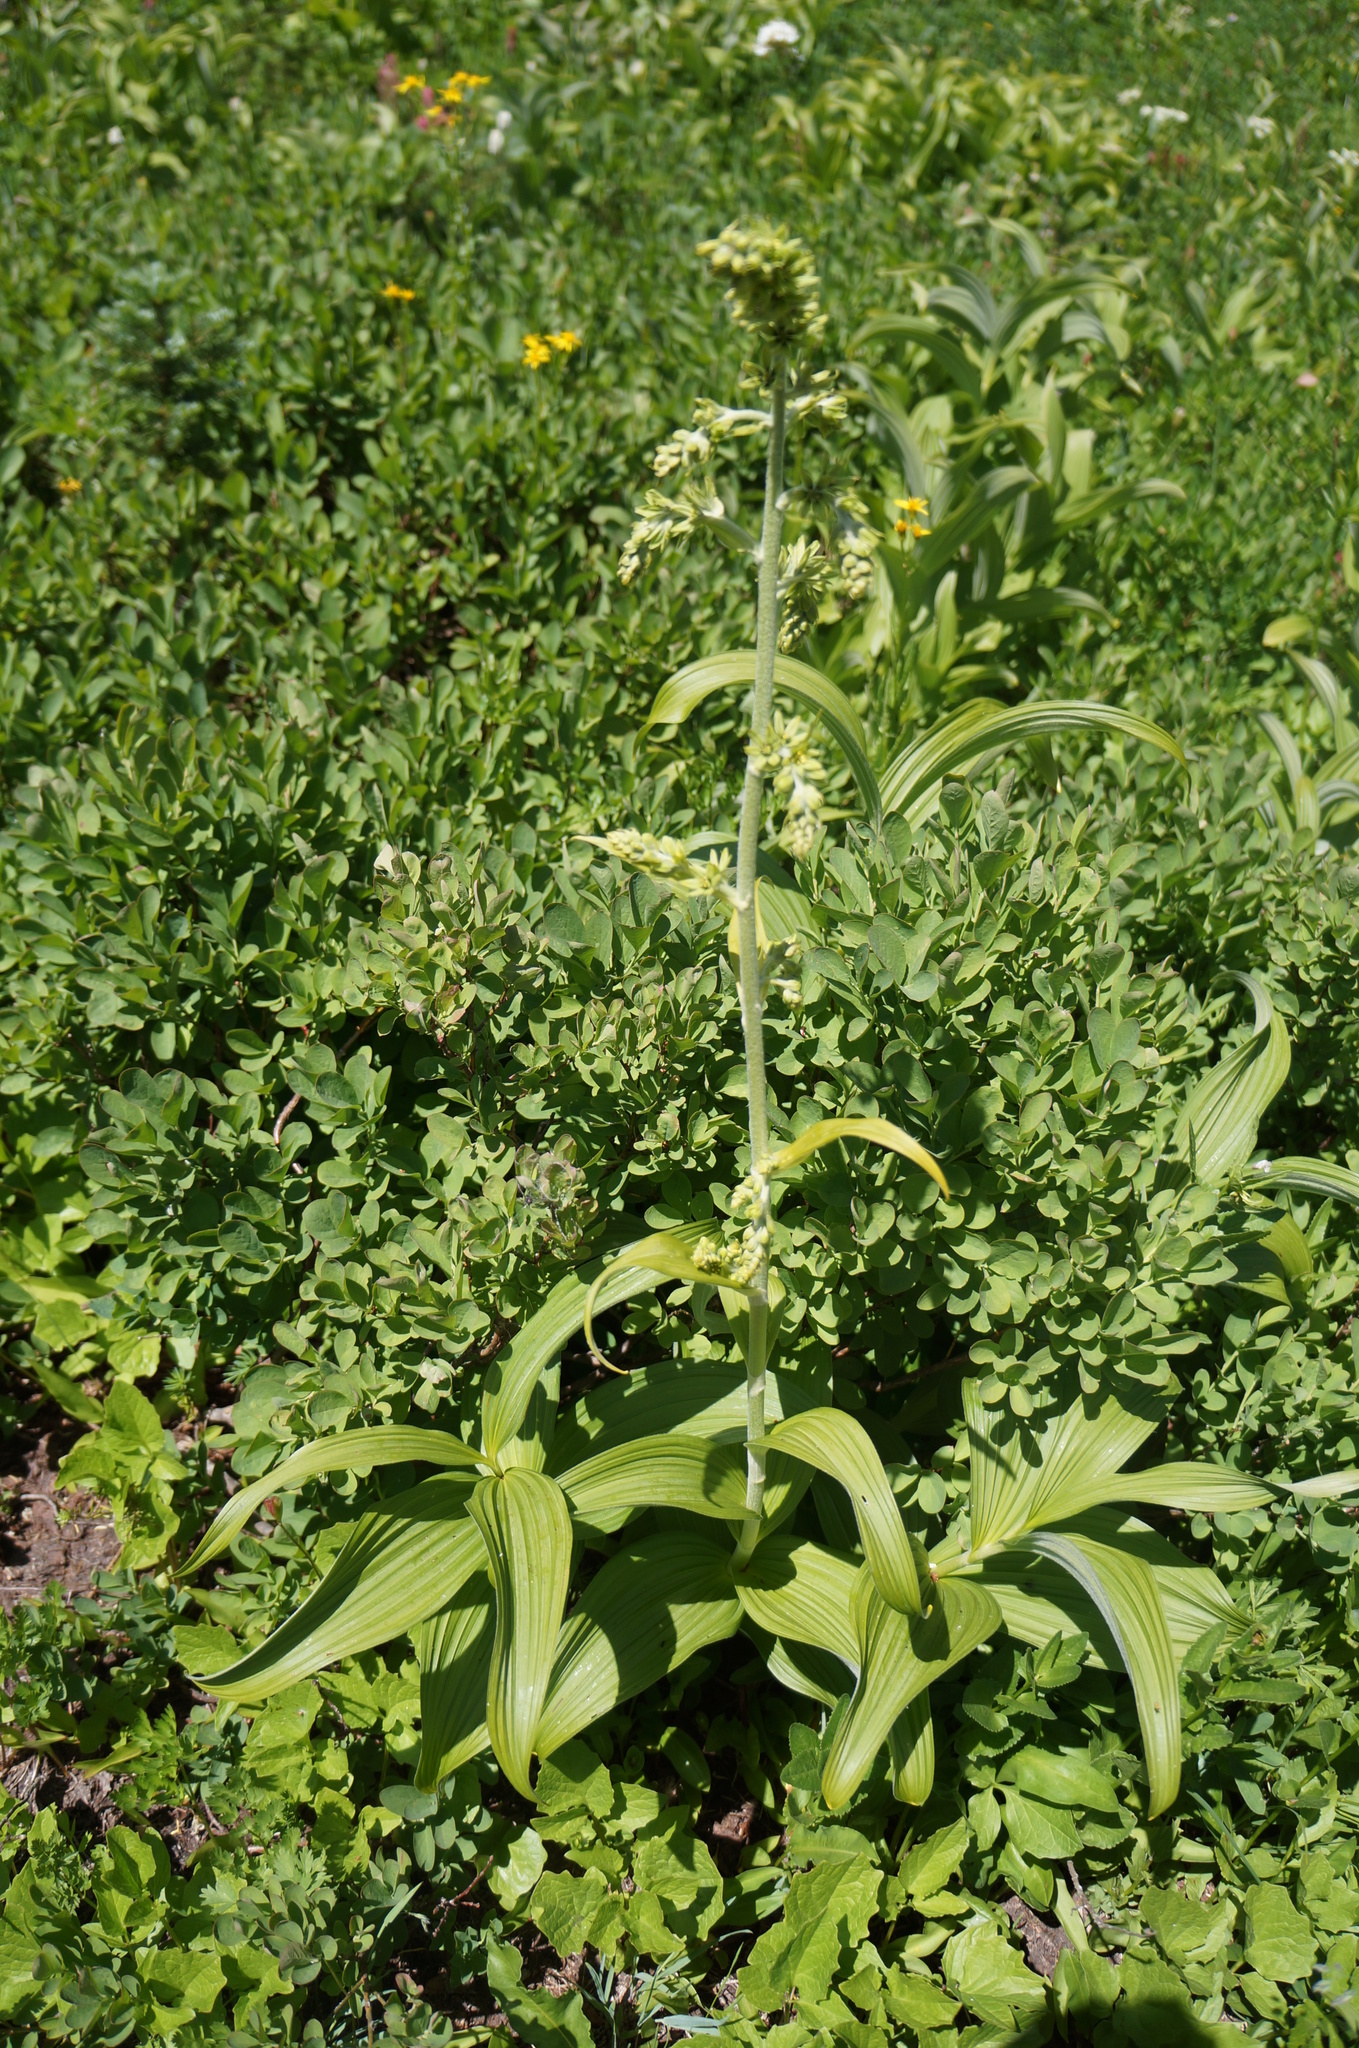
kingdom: Plantae
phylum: Tracheophyta
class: Liliopsida
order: Liliales
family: Melanthiaceae
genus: Veratrum
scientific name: Veratrum viride
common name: American false hellebore
